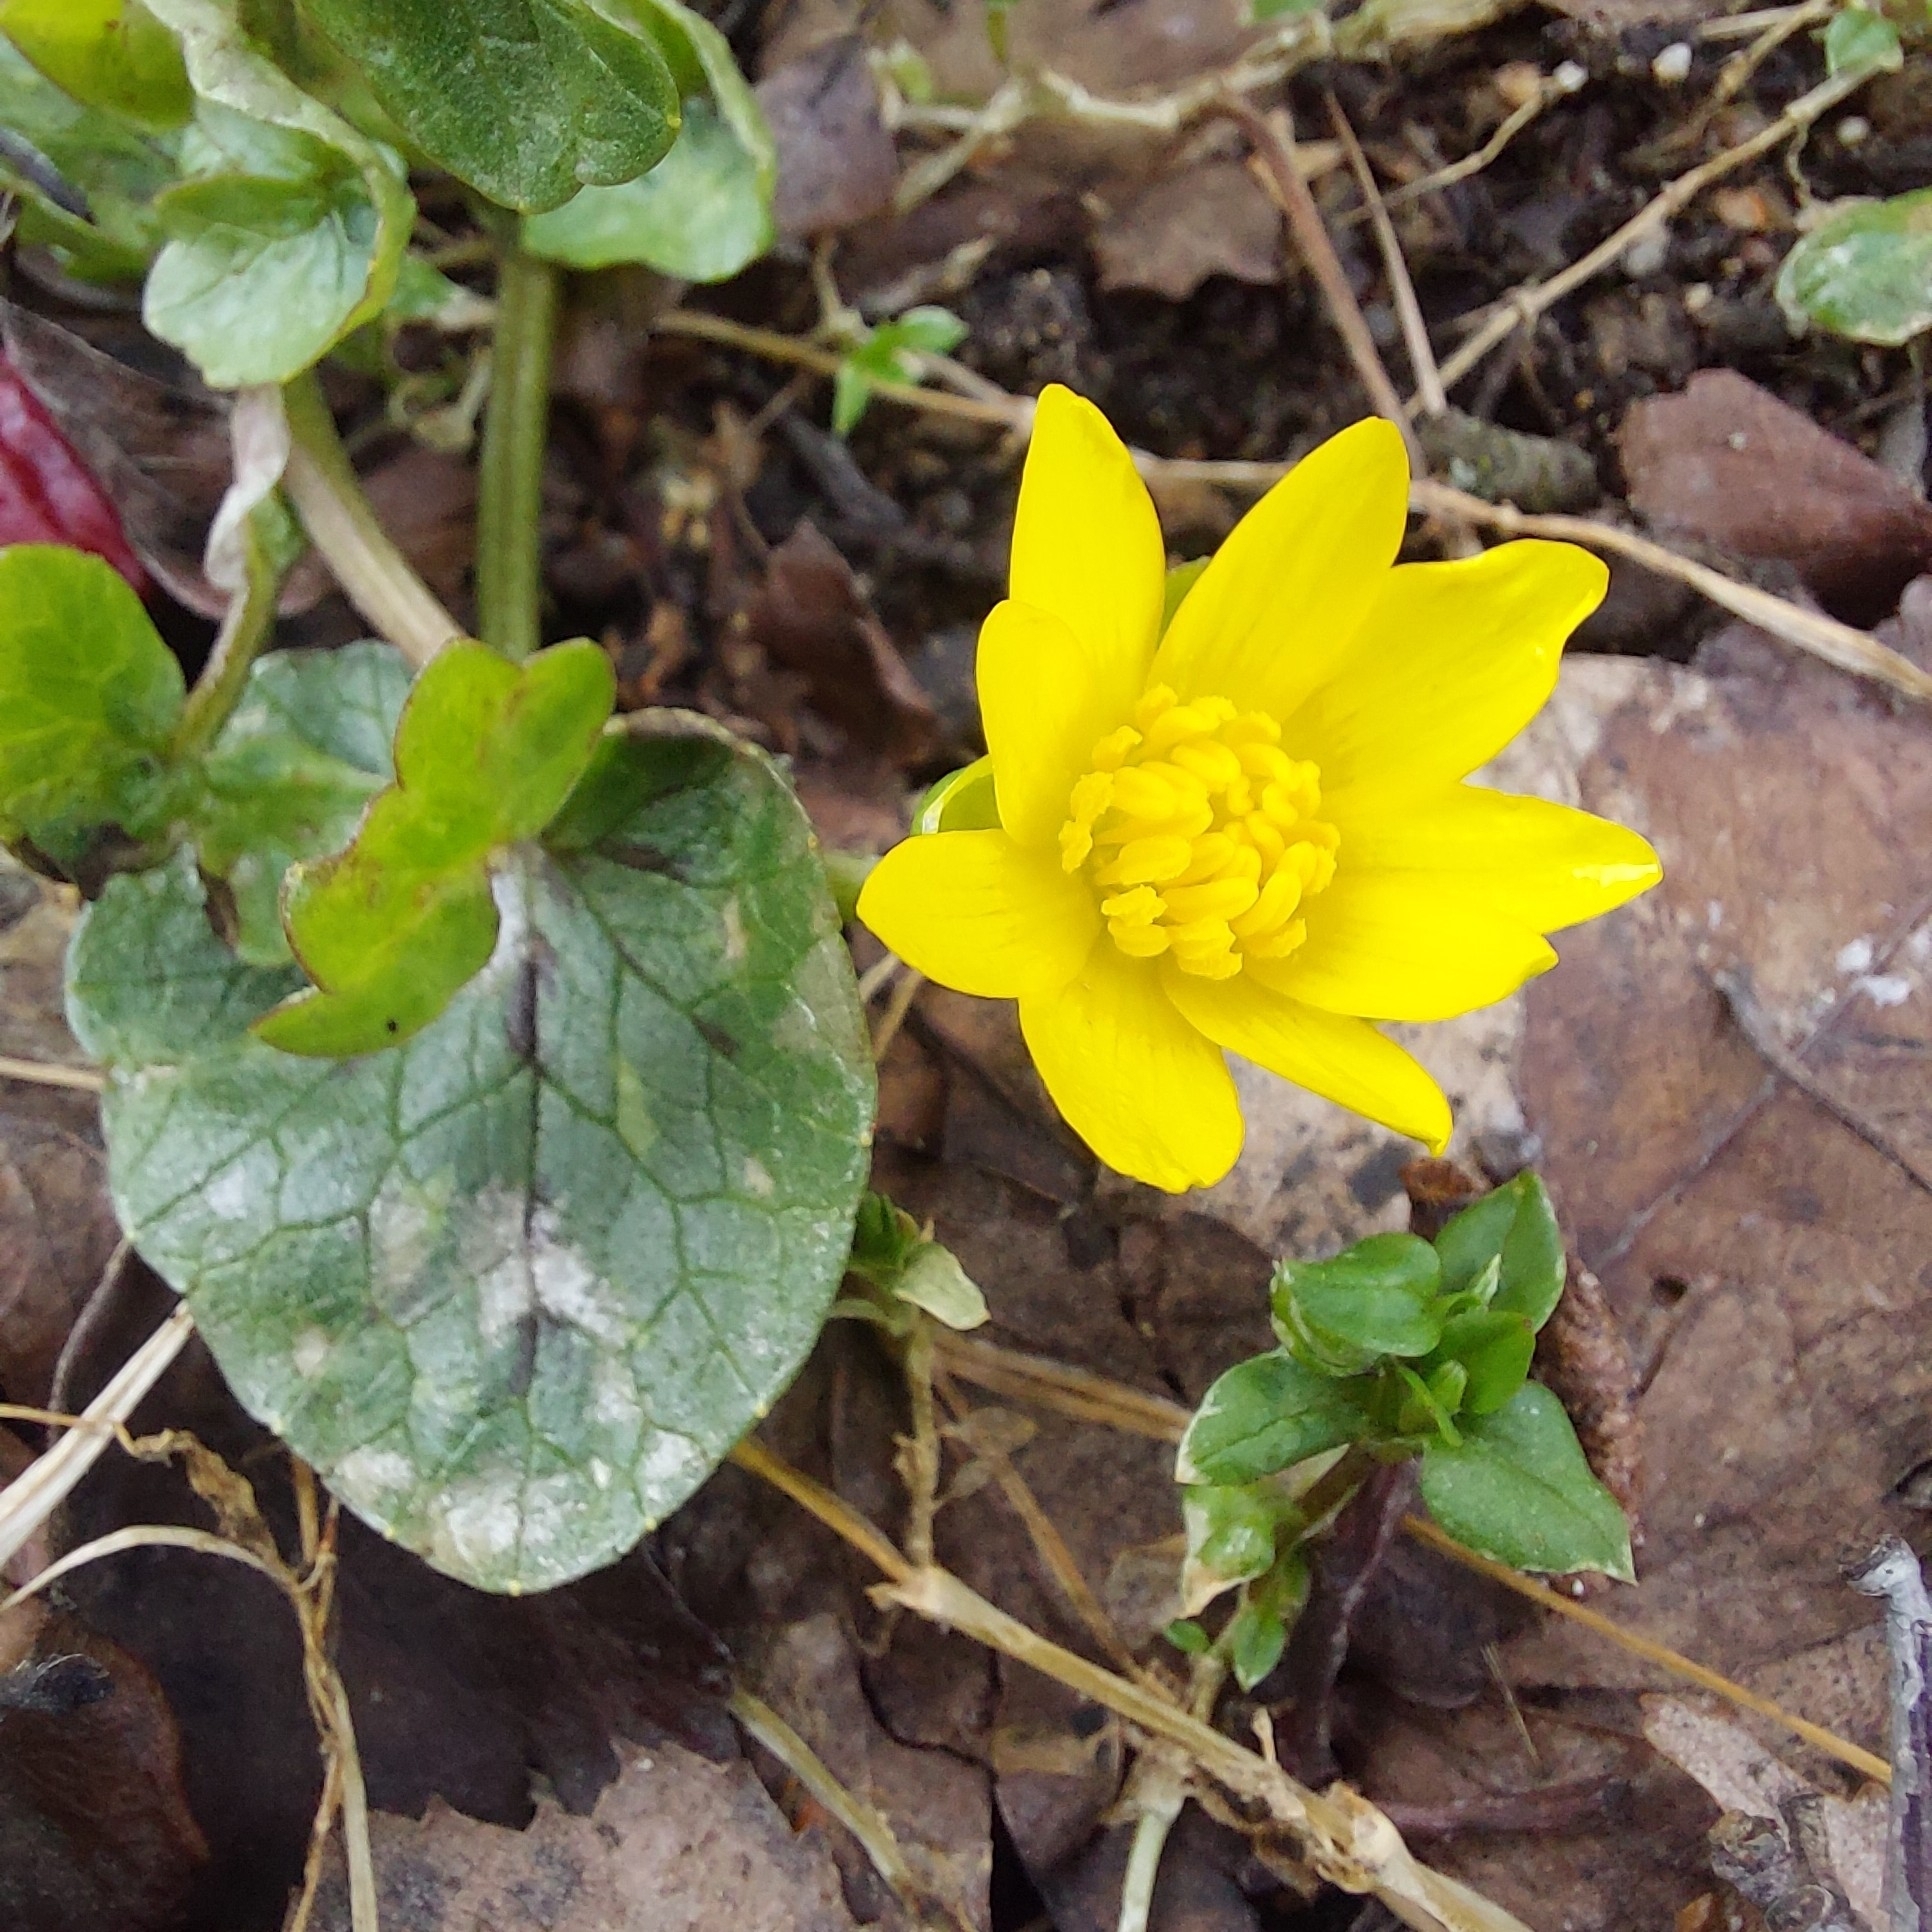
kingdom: Plantae
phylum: Tracheophyta
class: Magnoliopsida
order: Ranunculales
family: Ranunculaceae
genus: Ficaria
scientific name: Ficaria verna
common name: Lesser celandine
